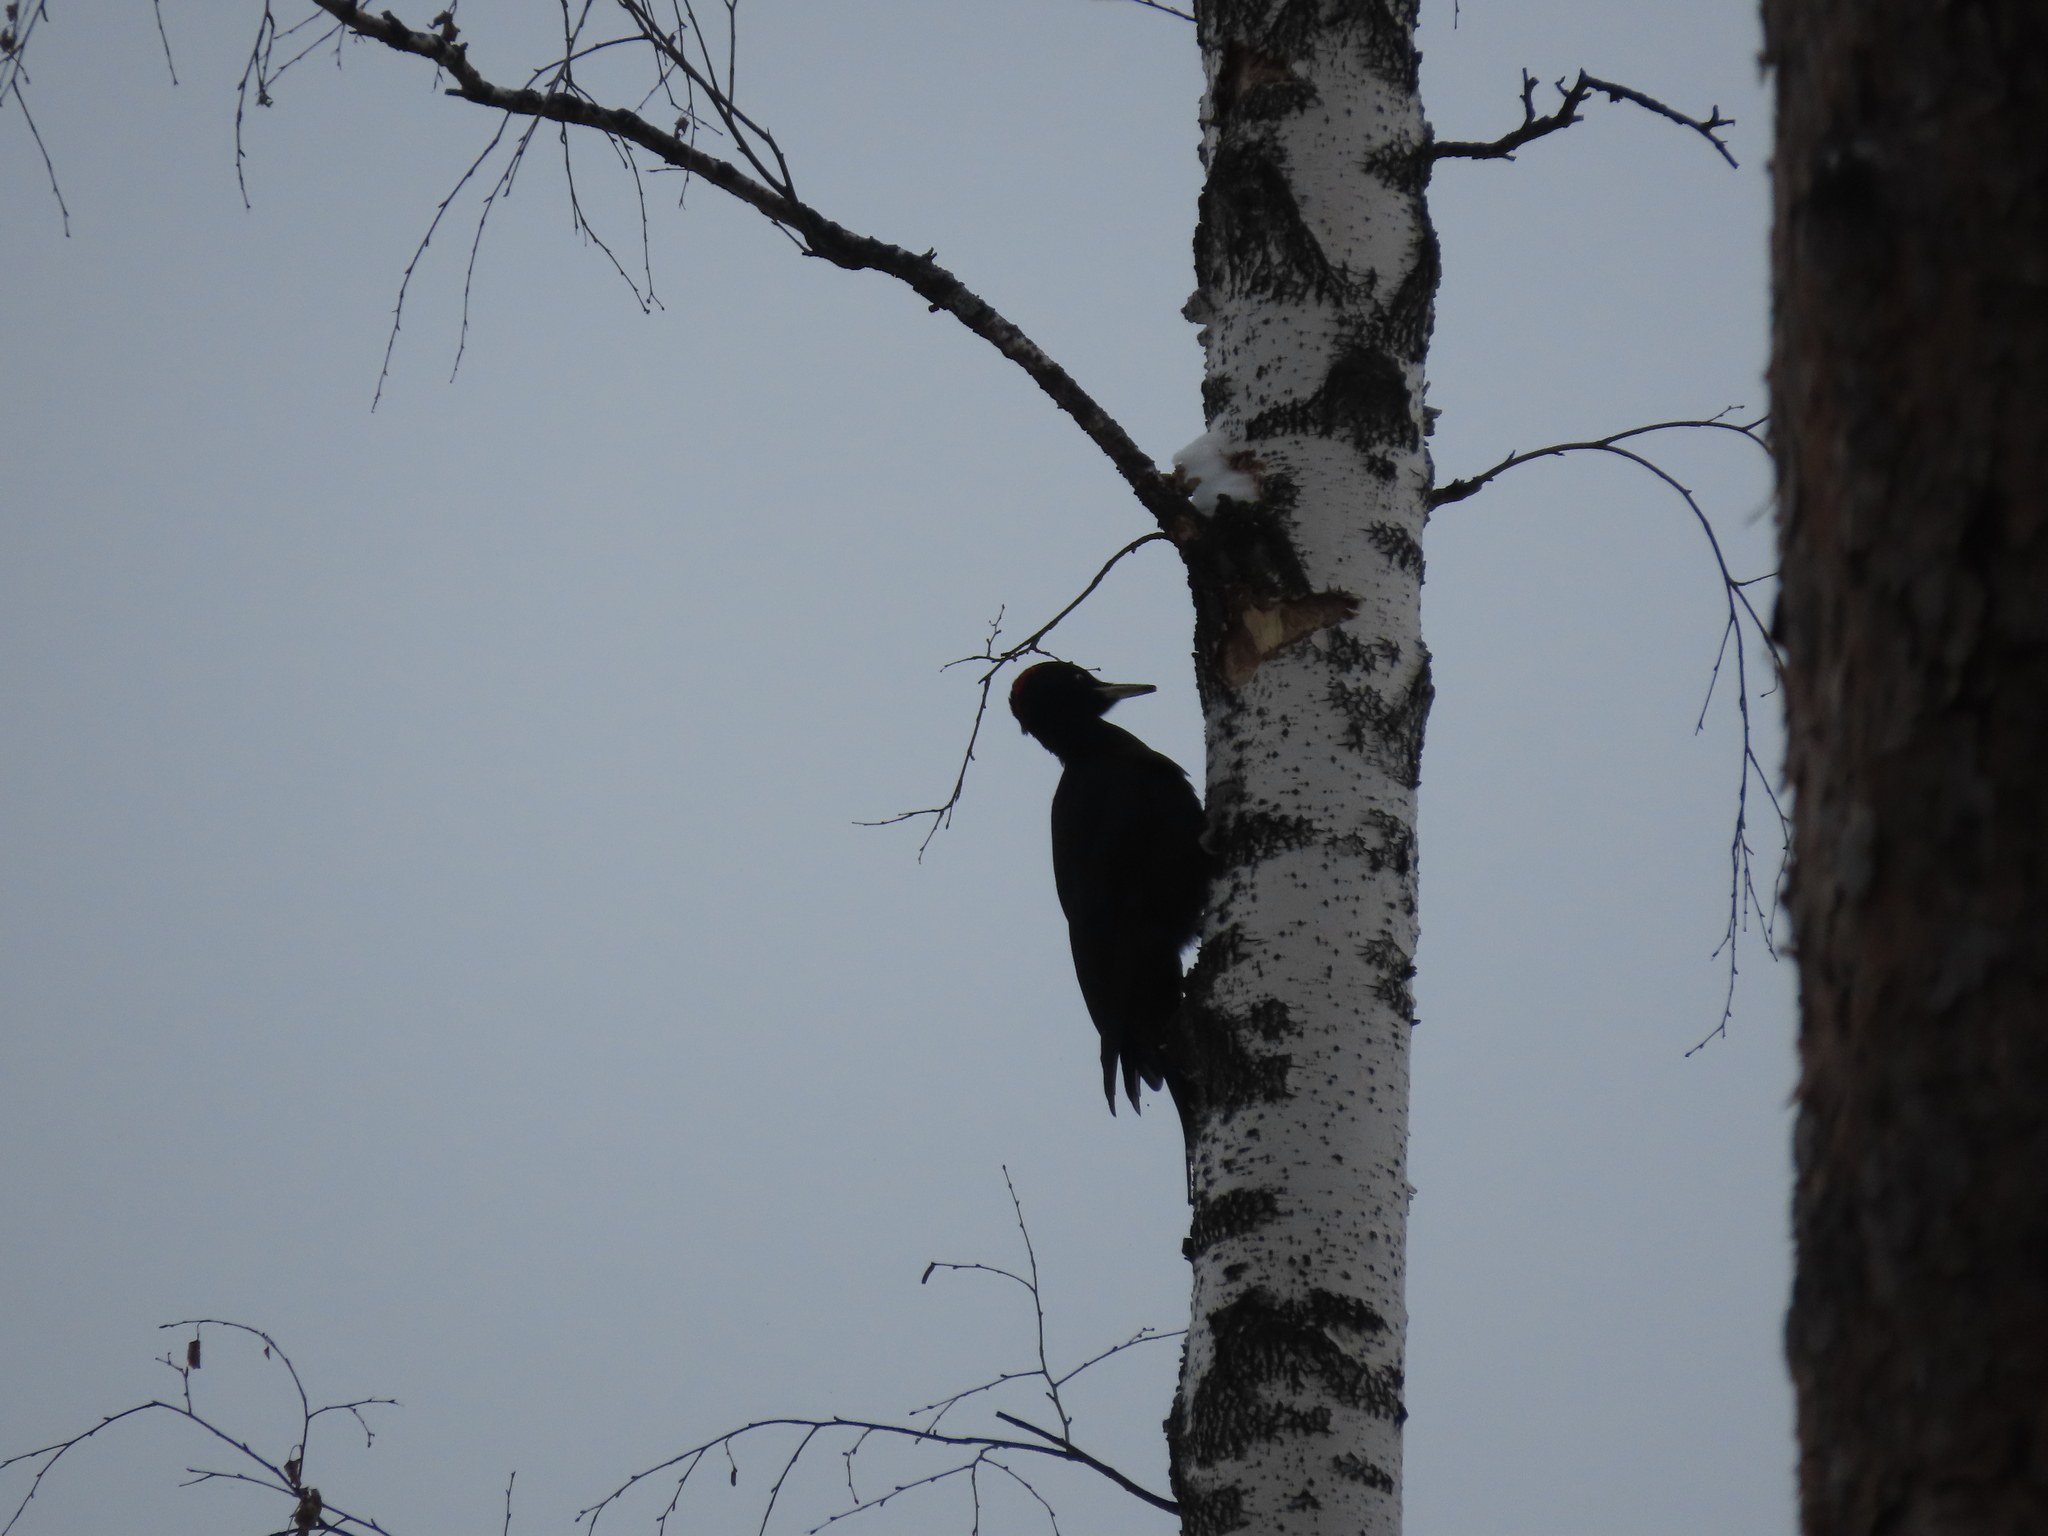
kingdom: Animalia
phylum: Chordata
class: Aves
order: Piciformes
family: Picidae
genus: Dryocopus
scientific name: Dryocopus martius
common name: Black woodpecker
